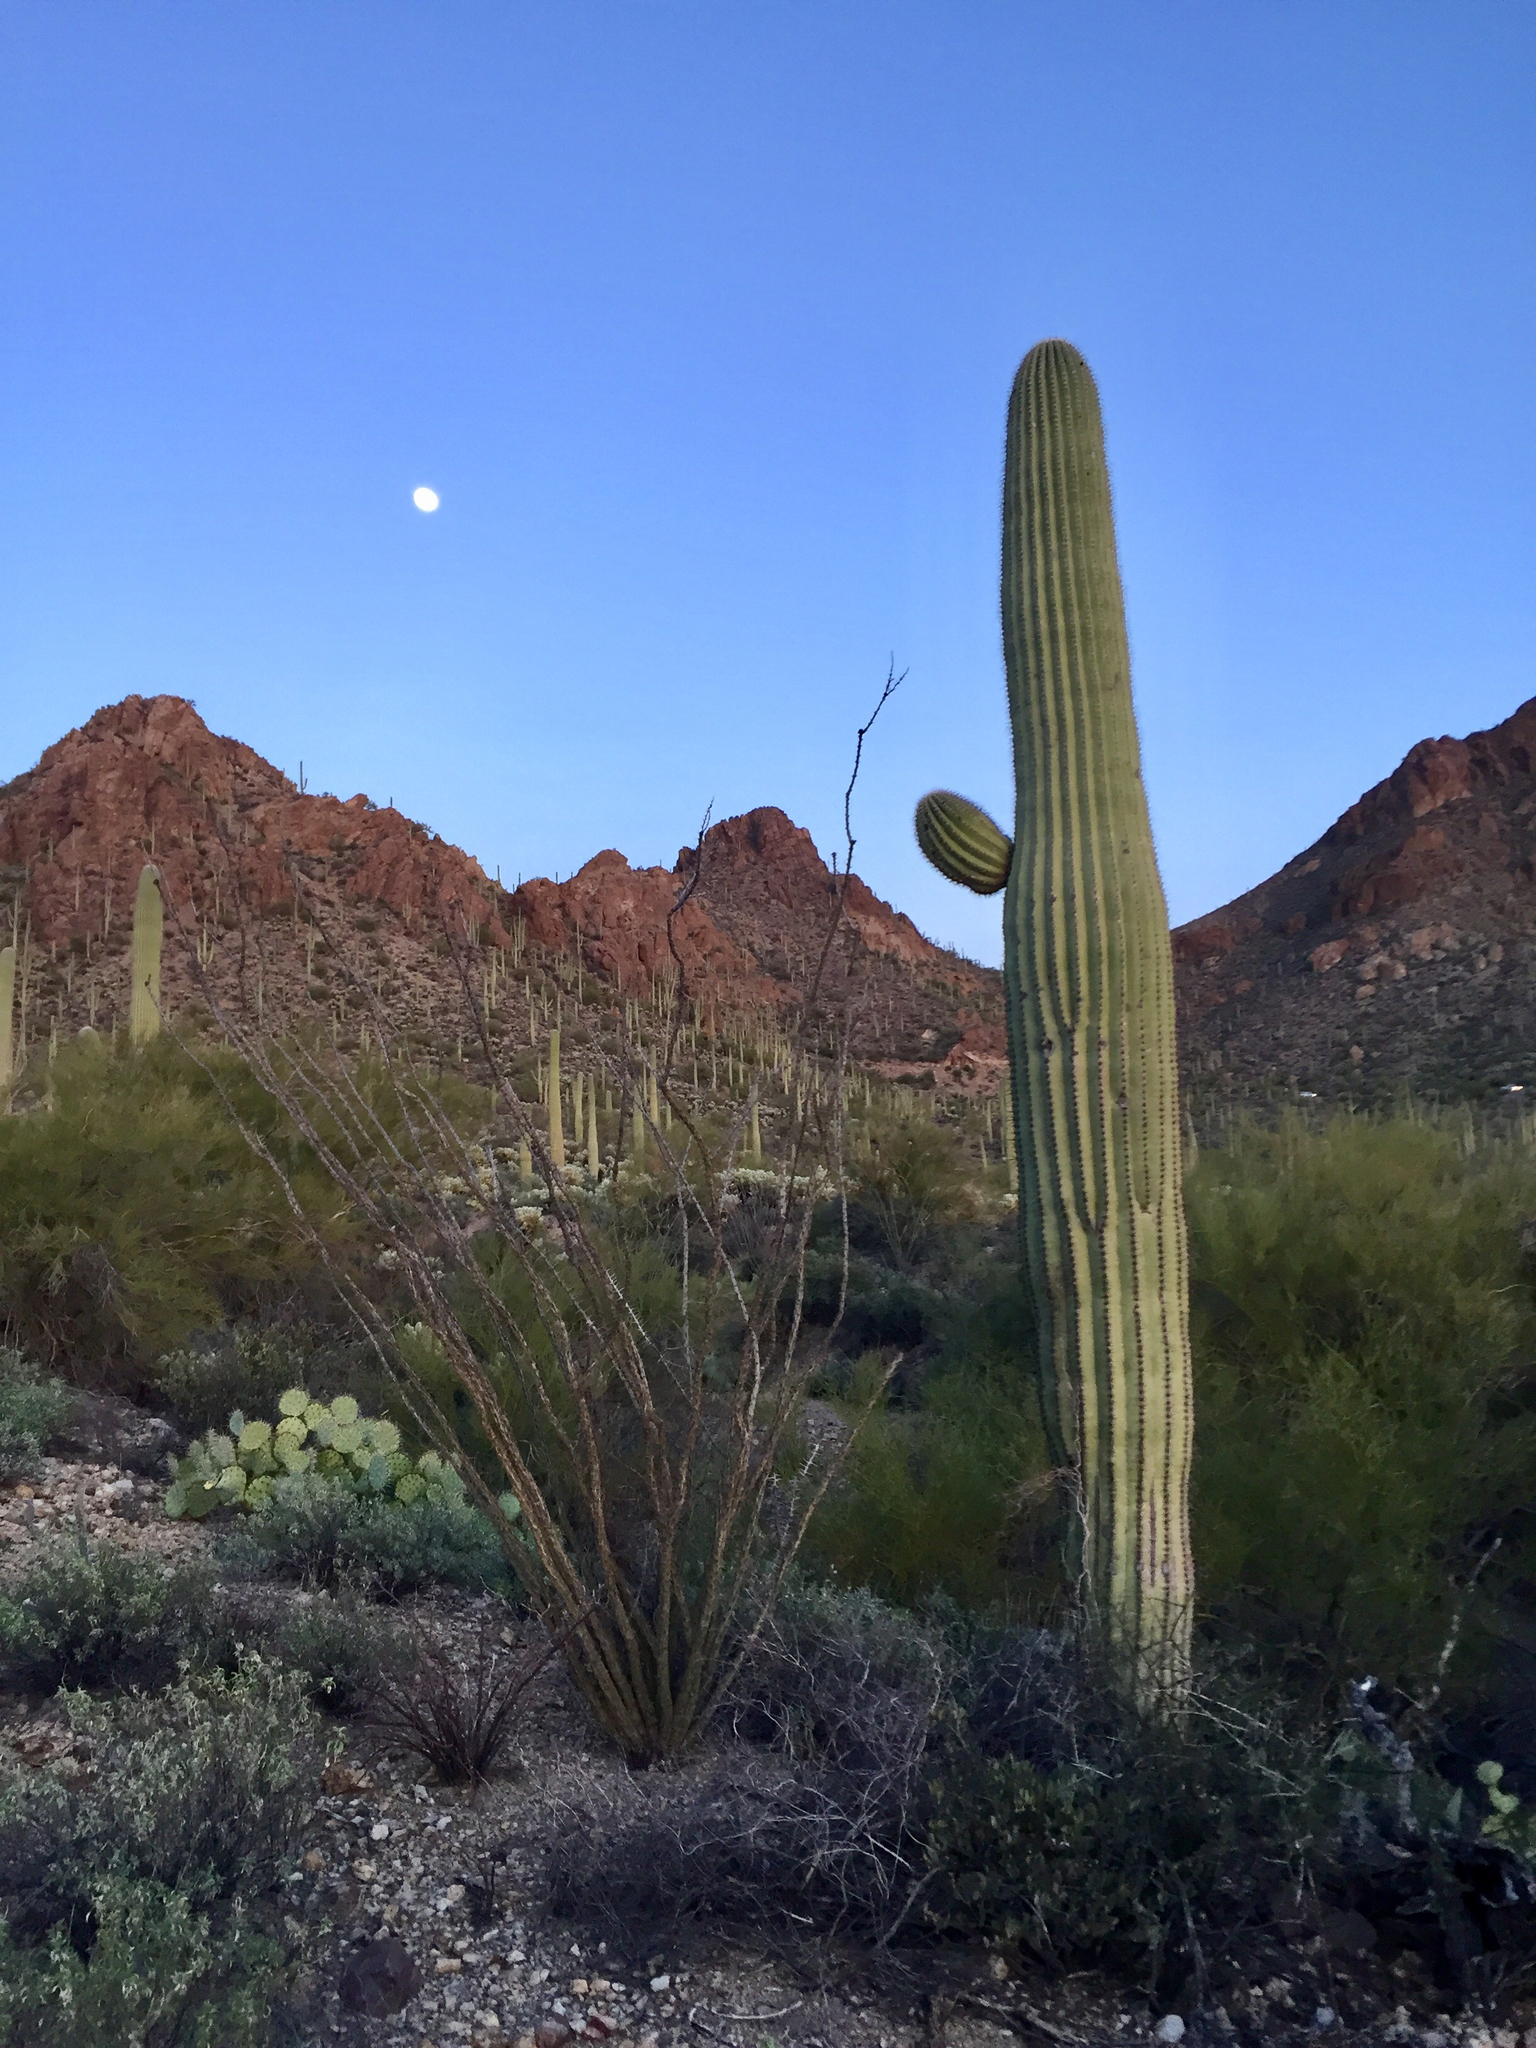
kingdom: Plantae
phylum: Tracheophyta
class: Magnoliopsida
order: Caryophyllales
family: Cactaceae
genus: Carnegiea
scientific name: Carnegiea gigantea
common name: Saguaro
